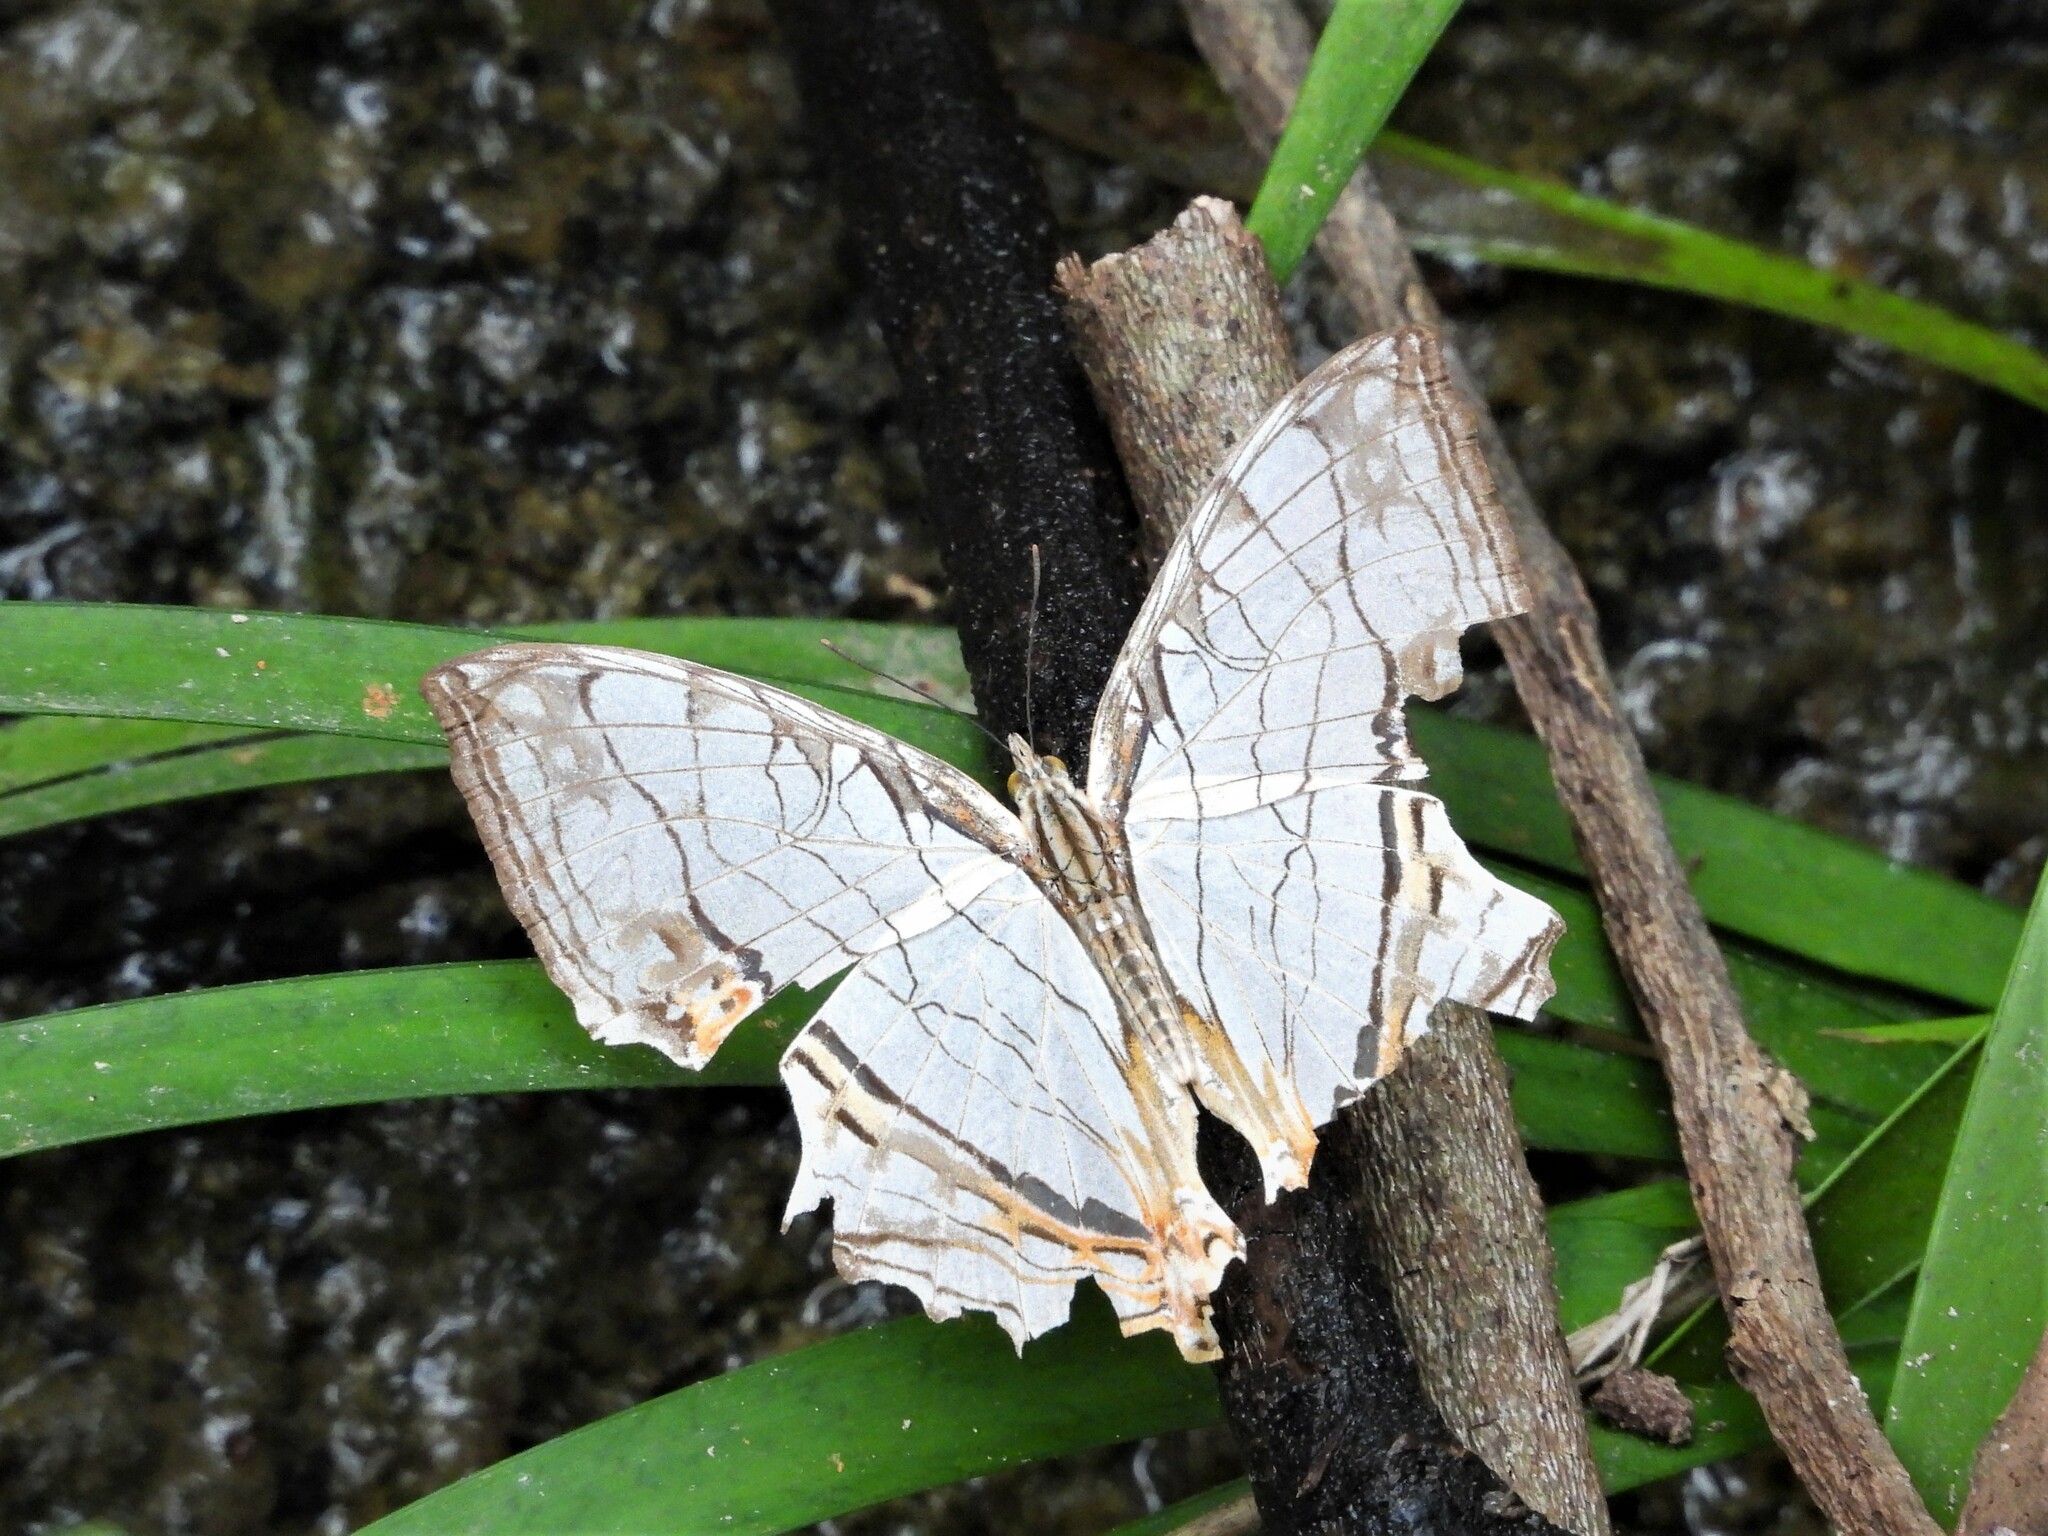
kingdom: Animalia
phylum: Arthropoda
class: Insecta
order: Lepidoptera
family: Nymphalidae
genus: Cyrestis
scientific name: Cyrestis thyodamas
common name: Common mapwing
